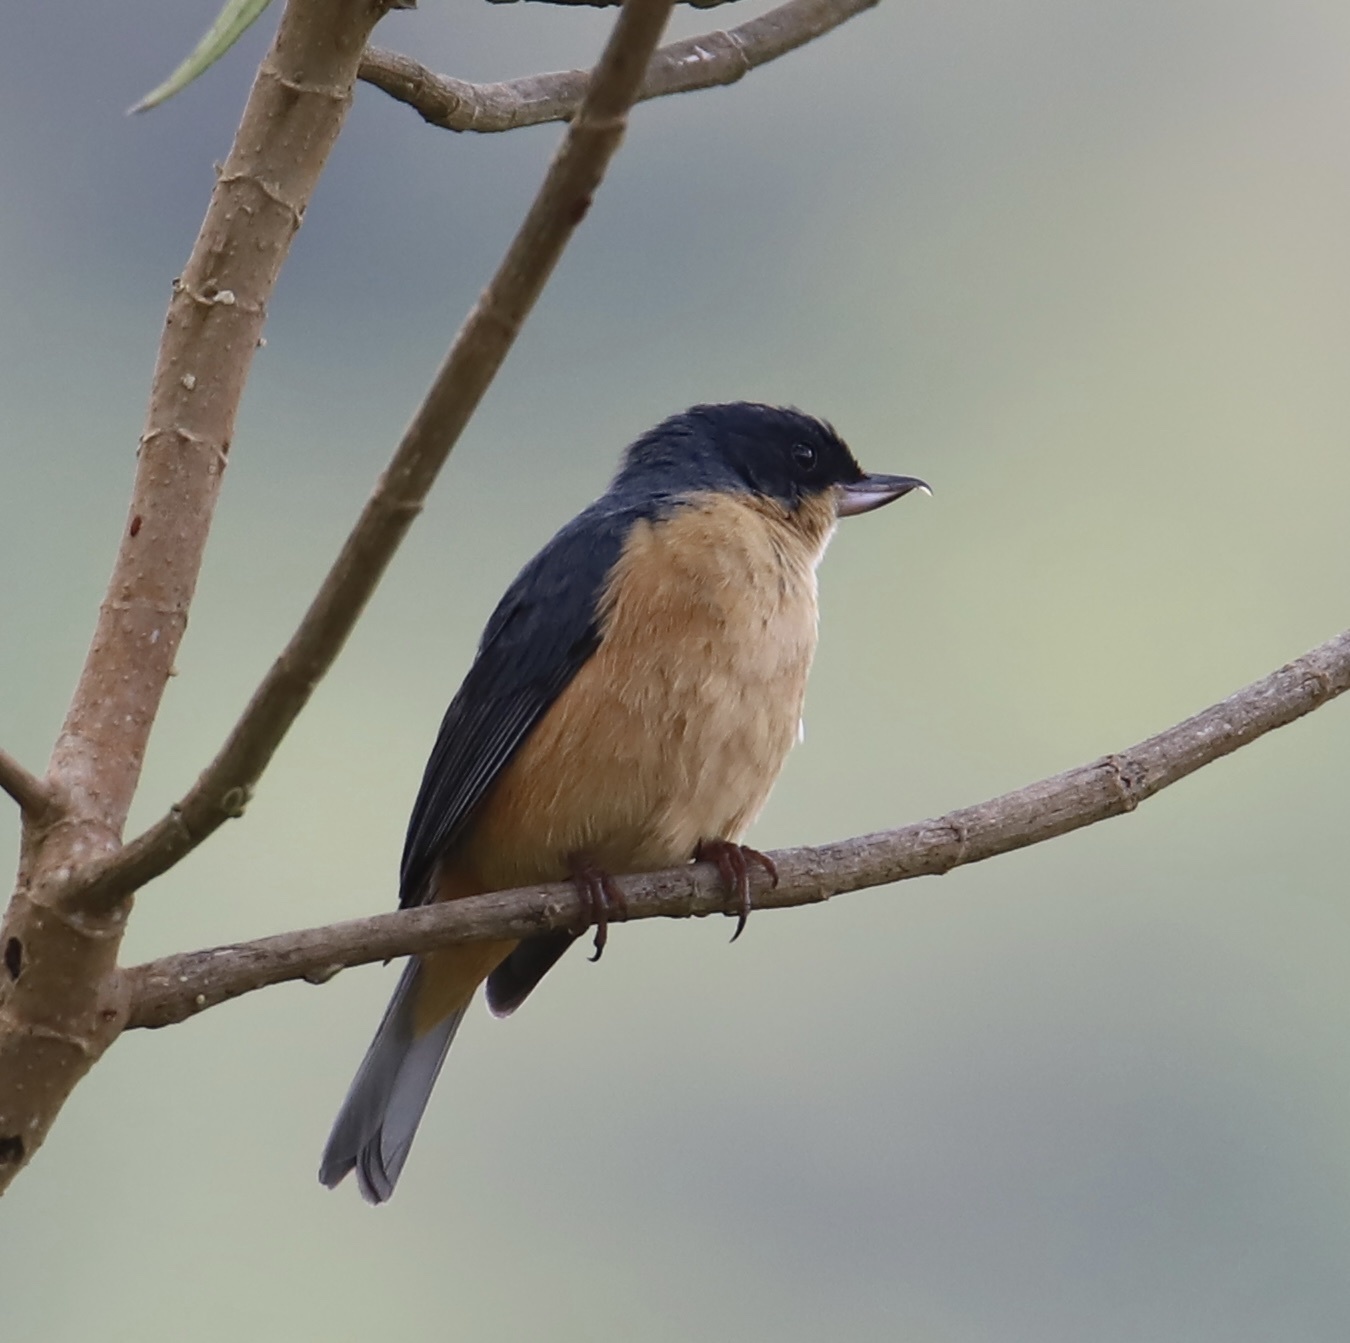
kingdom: Animalia
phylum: Chordata
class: Aves
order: Passeriformes
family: Thraupidae
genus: Diglossa
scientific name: Diglossa sittoides
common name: Rusty flowerpiercer
